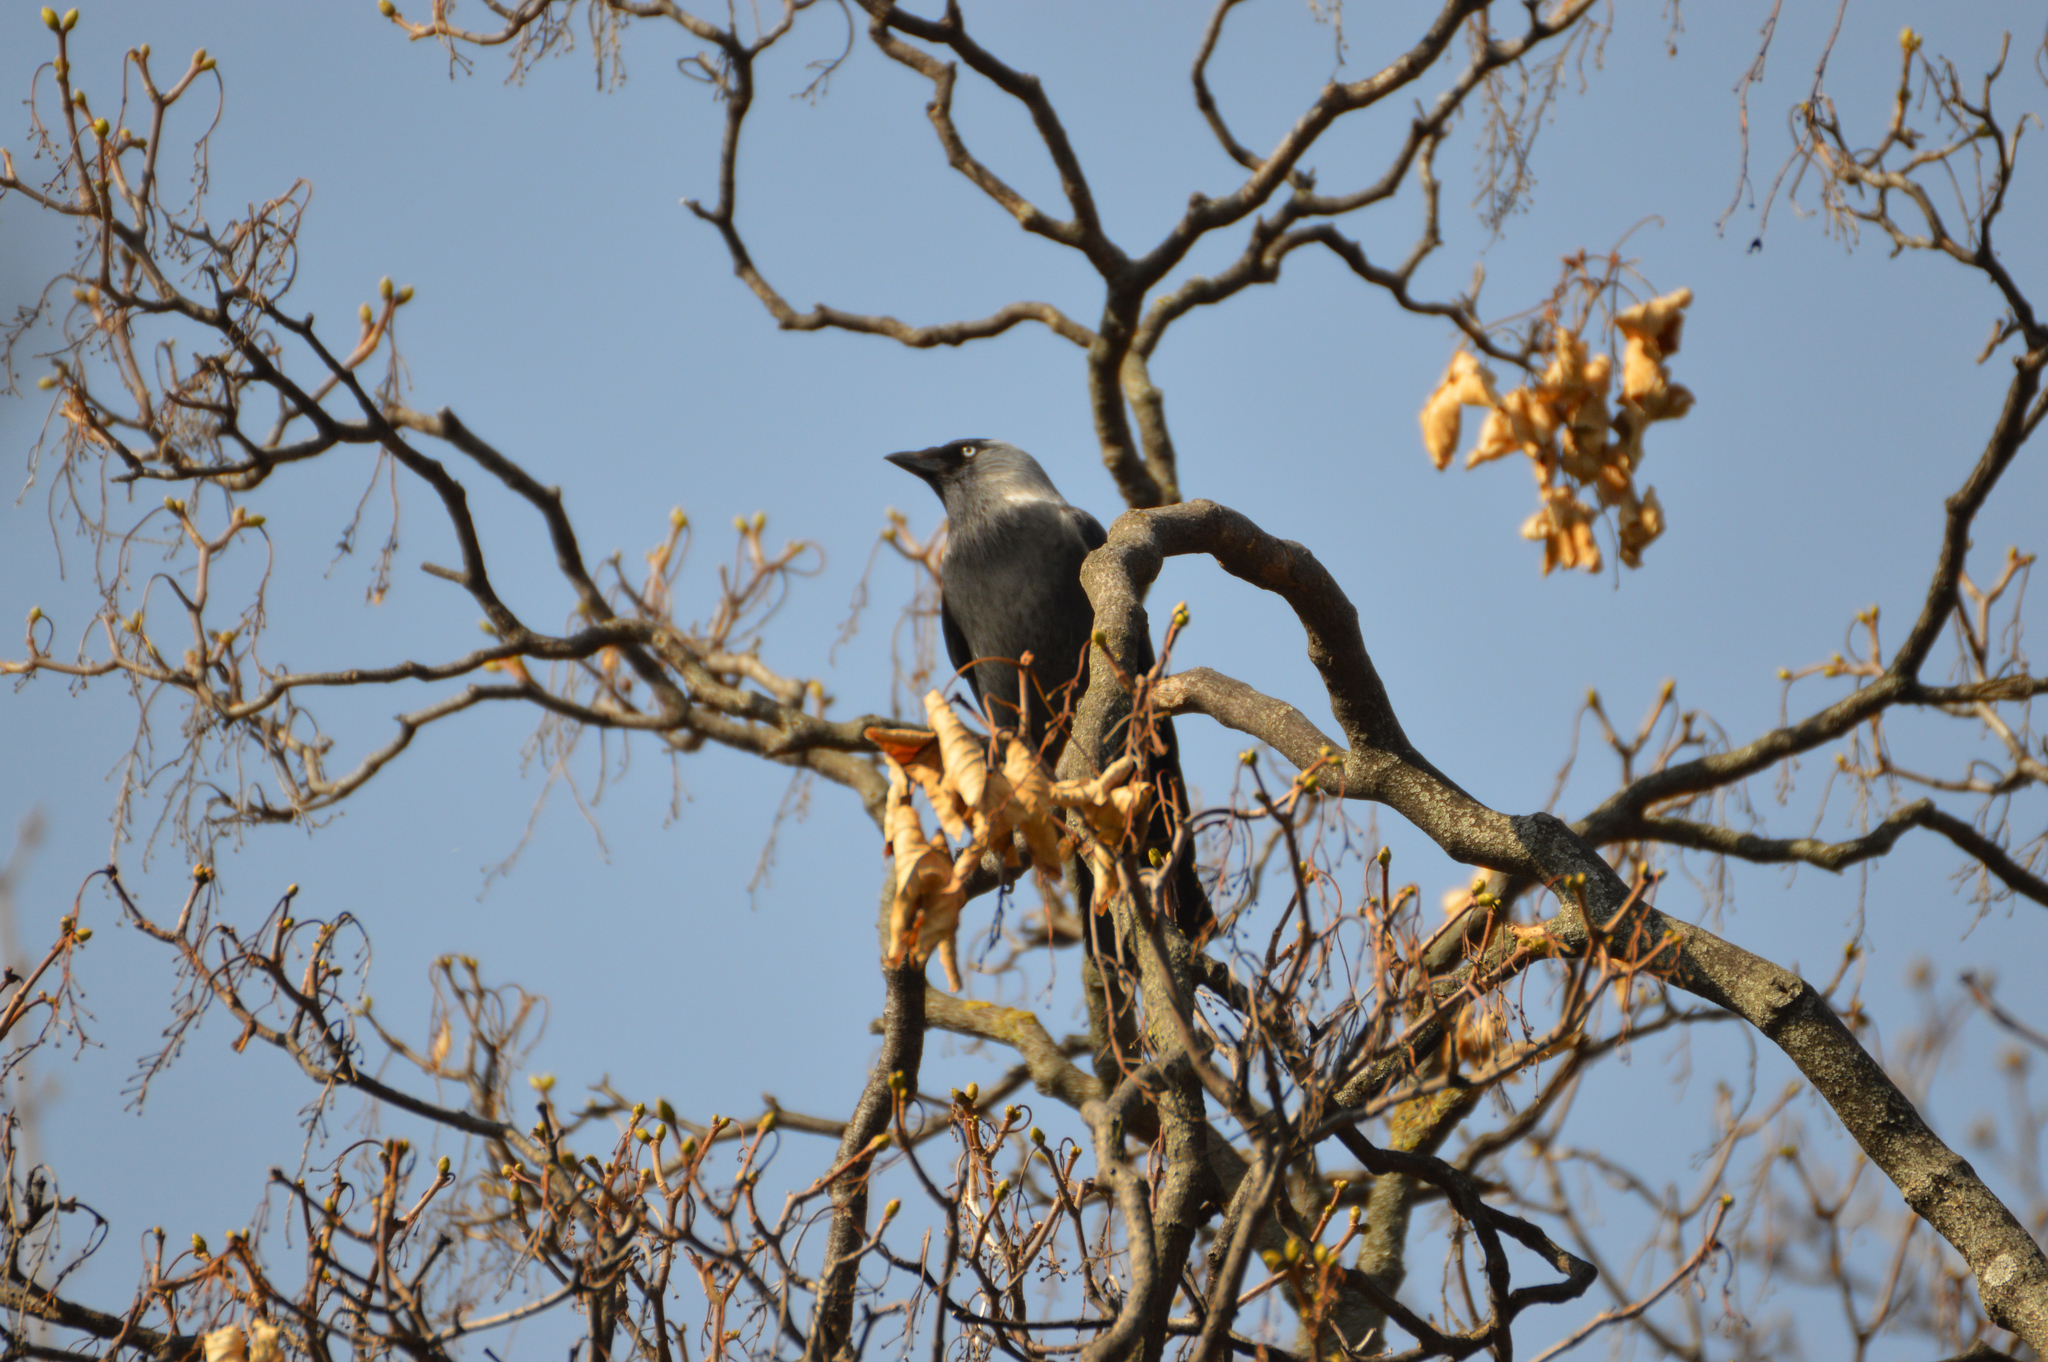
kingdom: Animalia
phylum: Chordata
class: Aves
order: Passeriformes
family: Corvidae
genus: Coloeus
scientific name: Coloeus monedula
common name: Western jackdaw
